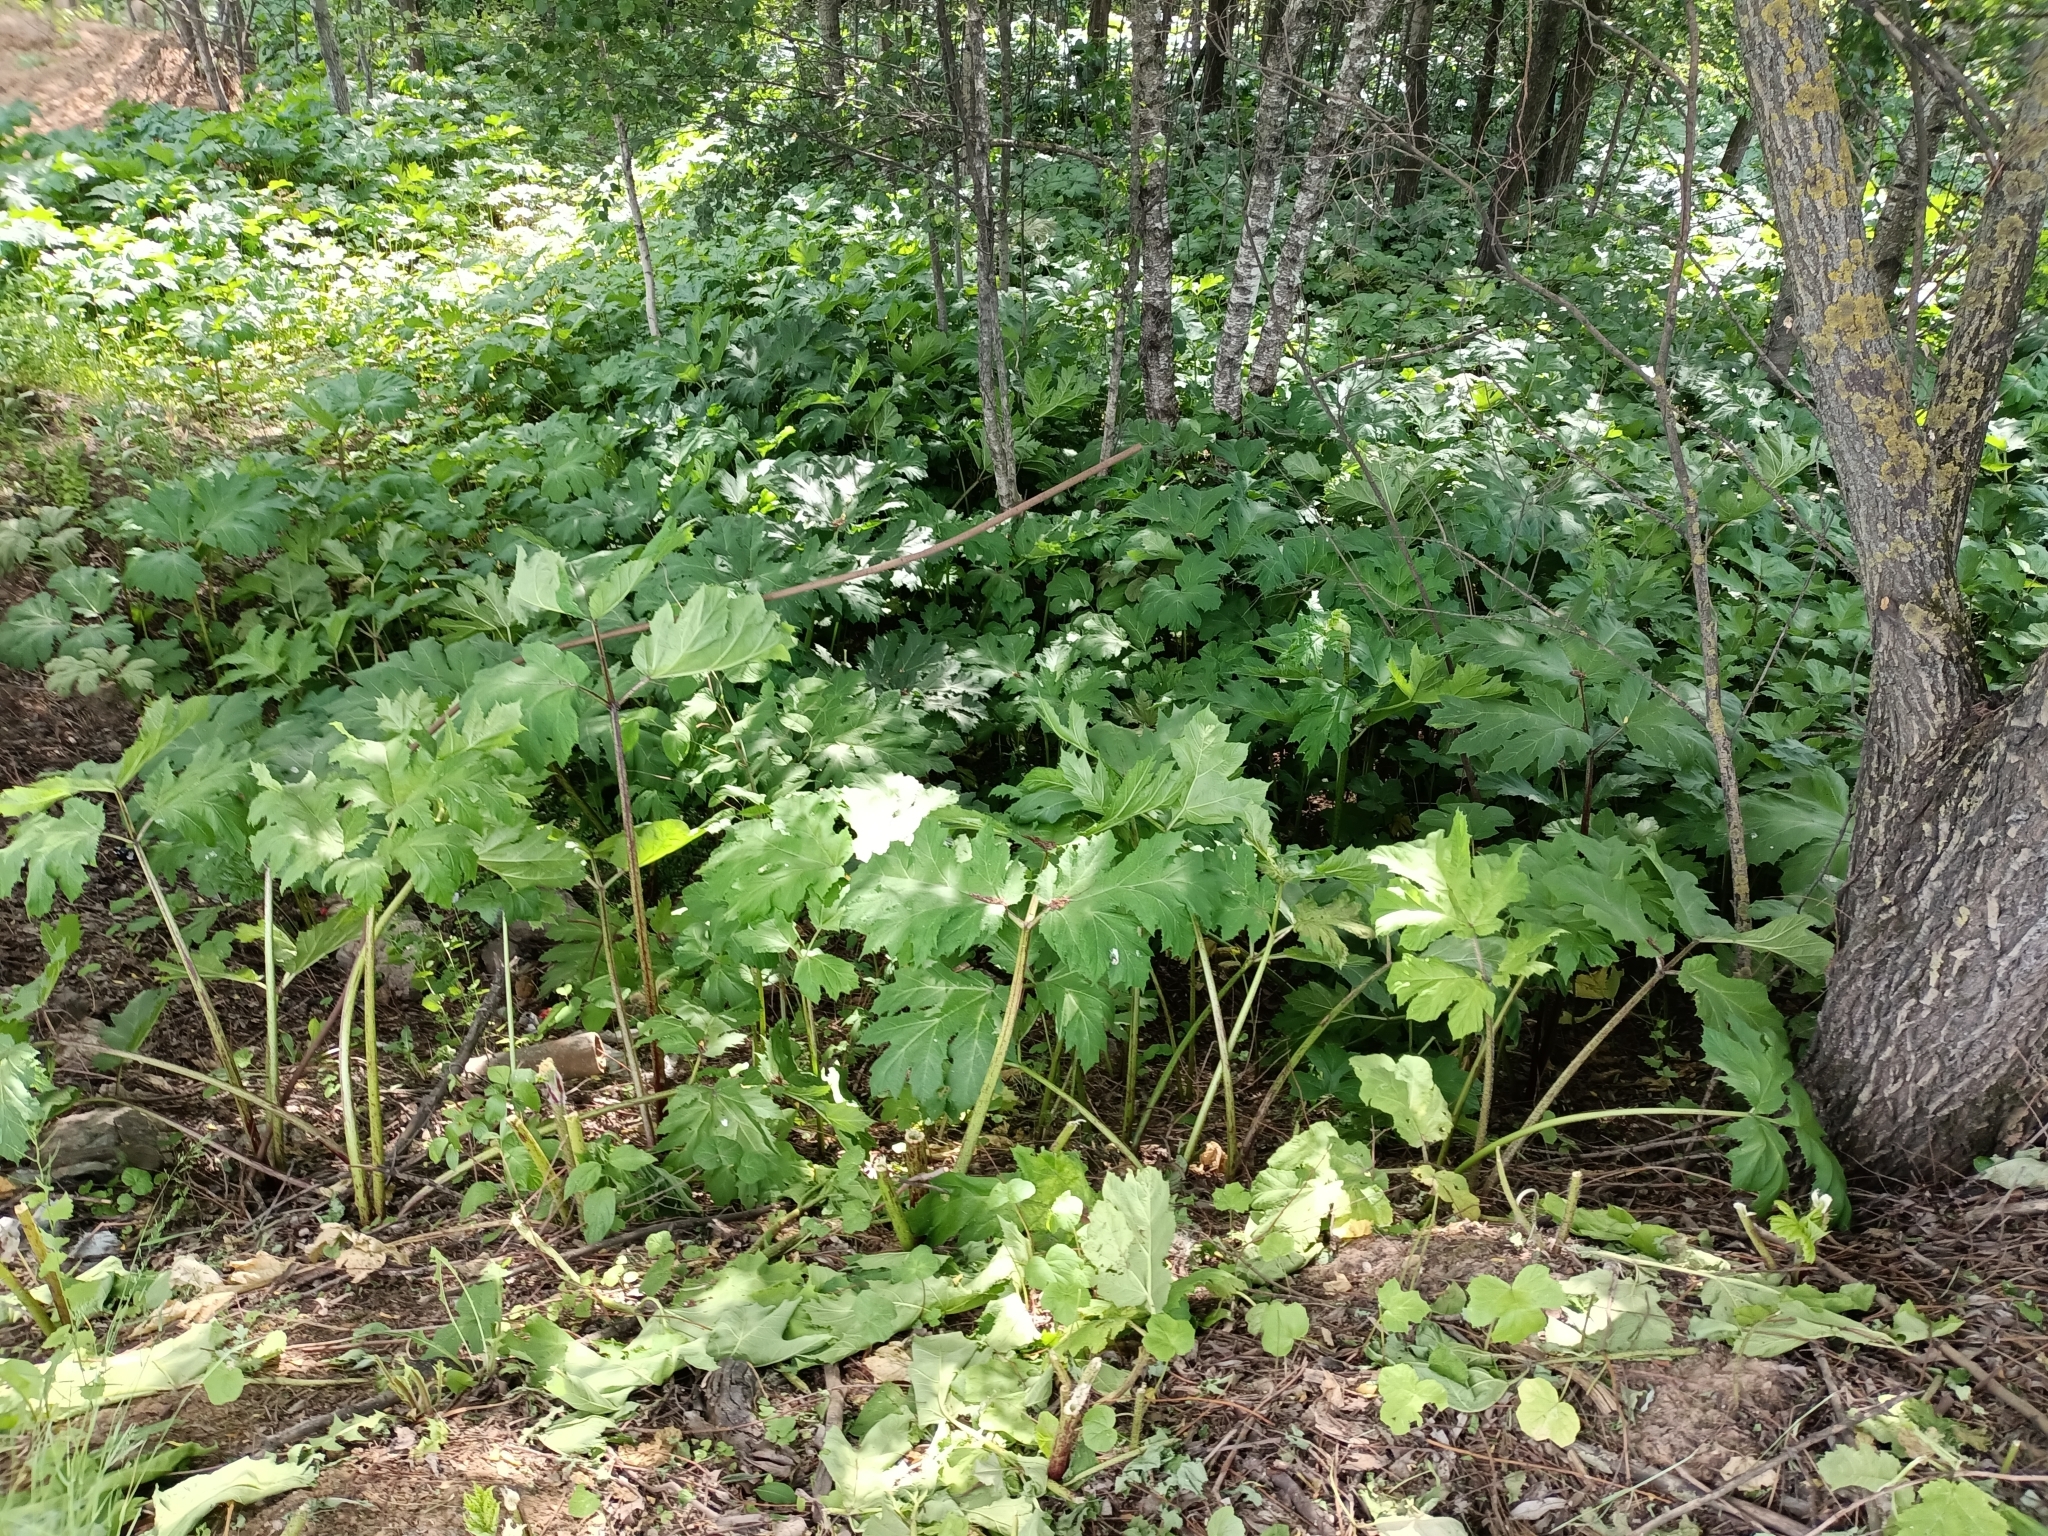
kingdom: Plantae
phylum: Tracheophyta
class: Magnoliopsida
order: Apiales
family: Apiaceae
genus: Heracleum
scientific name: Heracleum sosnowskyi
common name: Sosnowsky's hogweed
